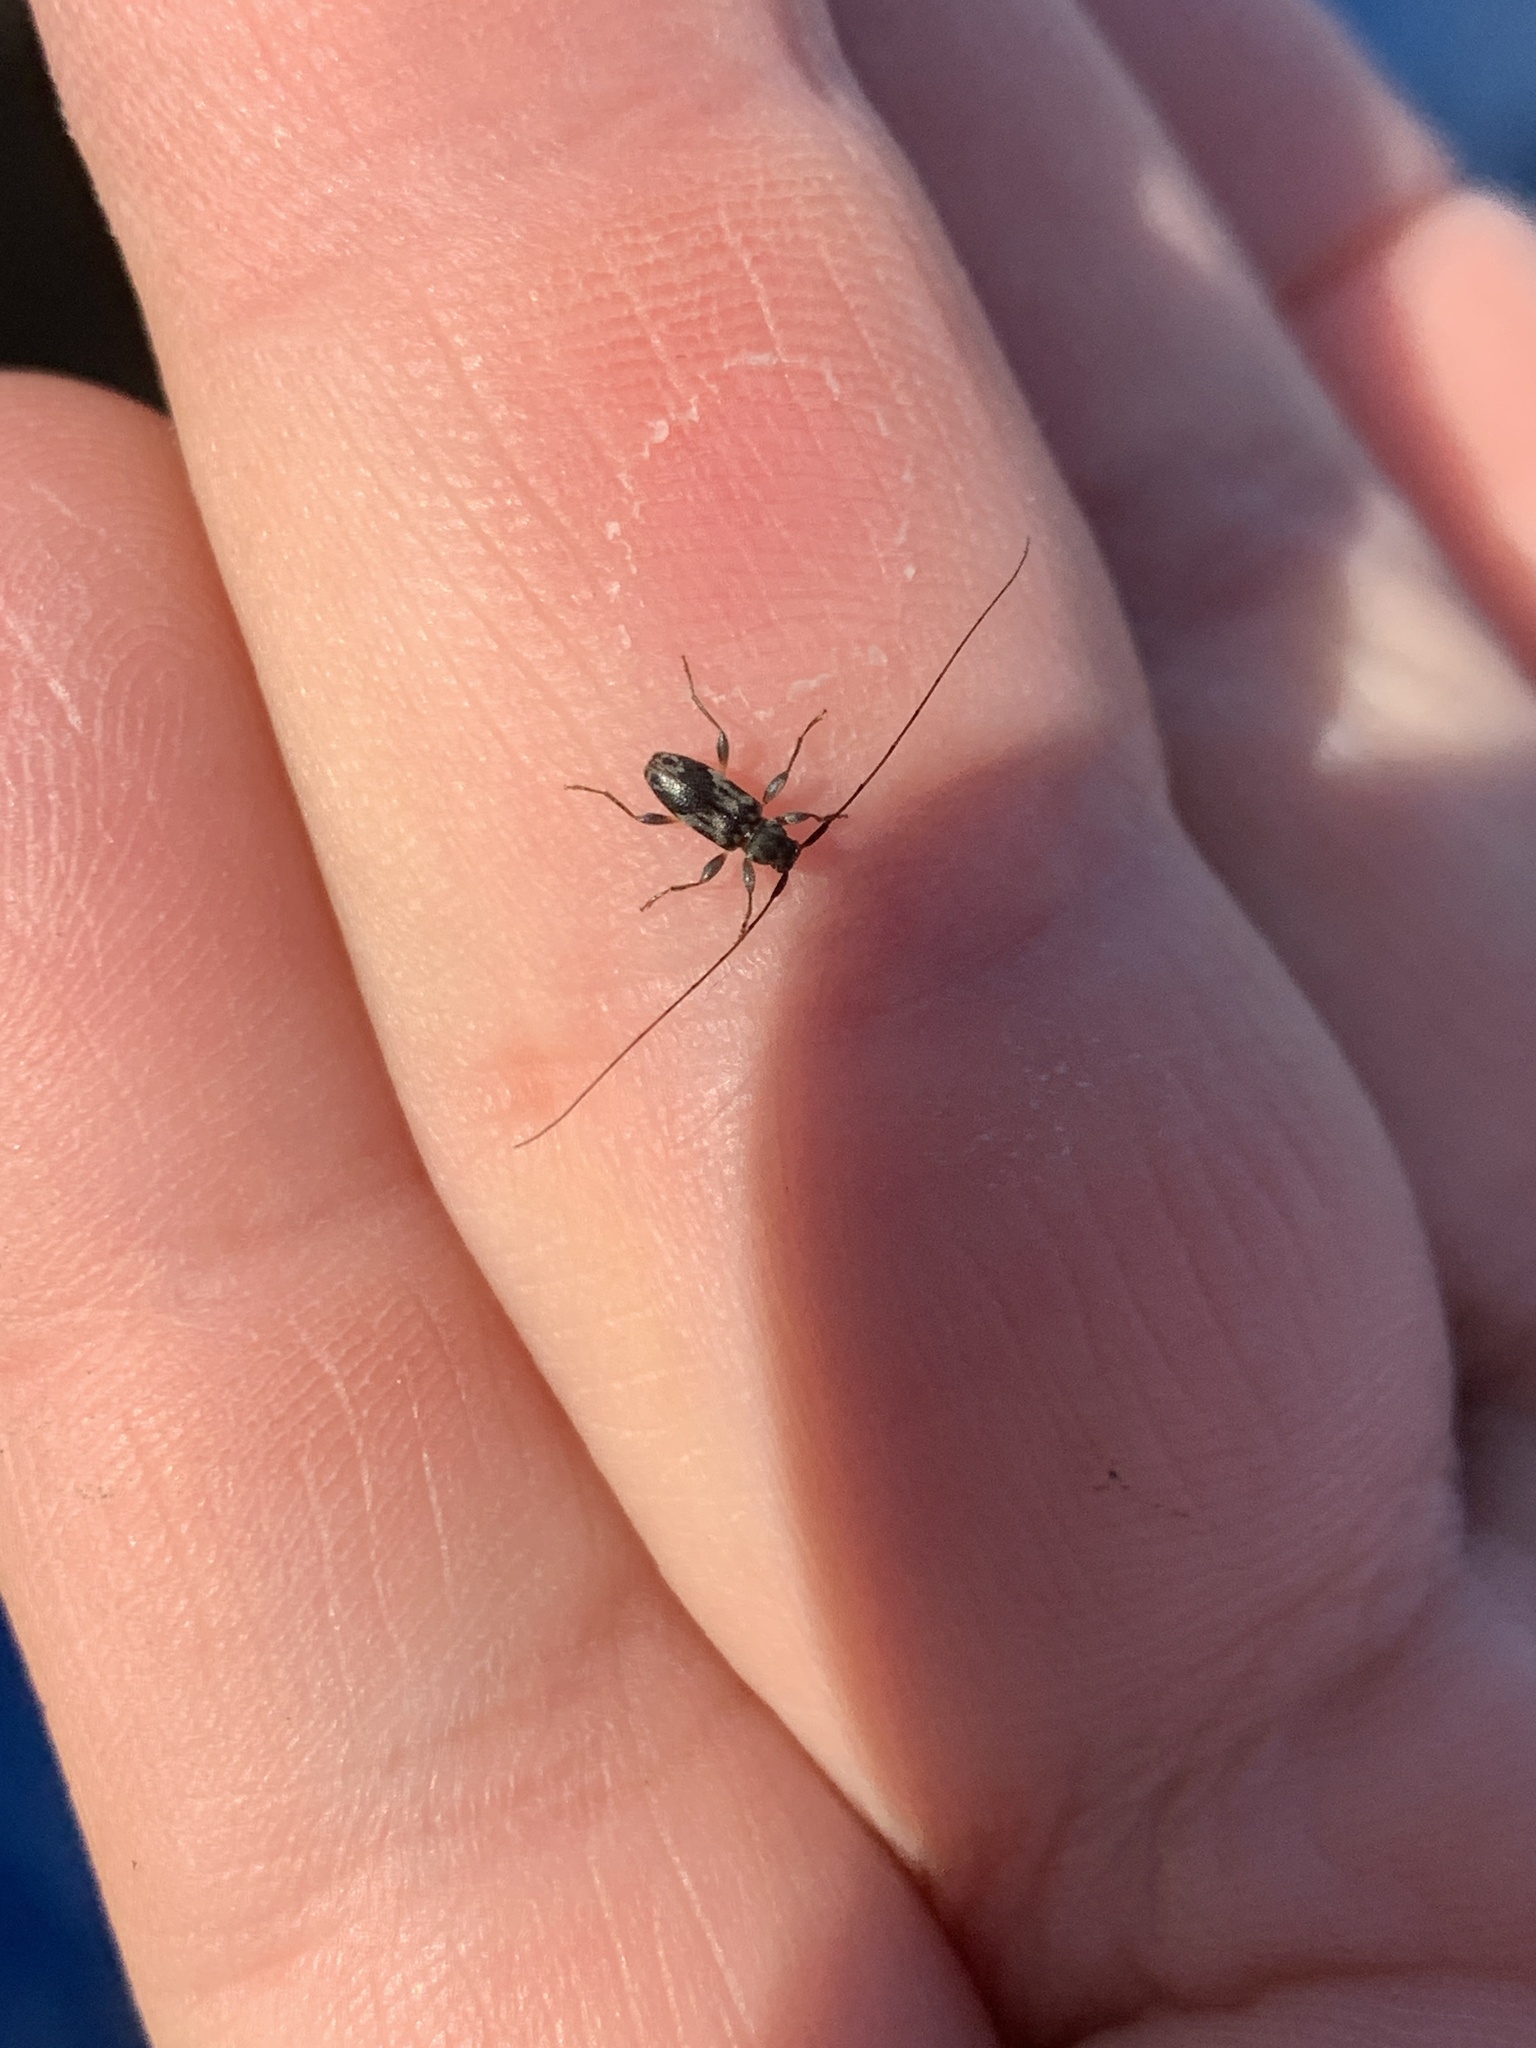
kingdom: Animalia
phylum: Arthropoda
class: Insecta
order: Coleoptera
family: Cerambycidae
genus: Urgleptes
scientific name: Urgleptes querci
